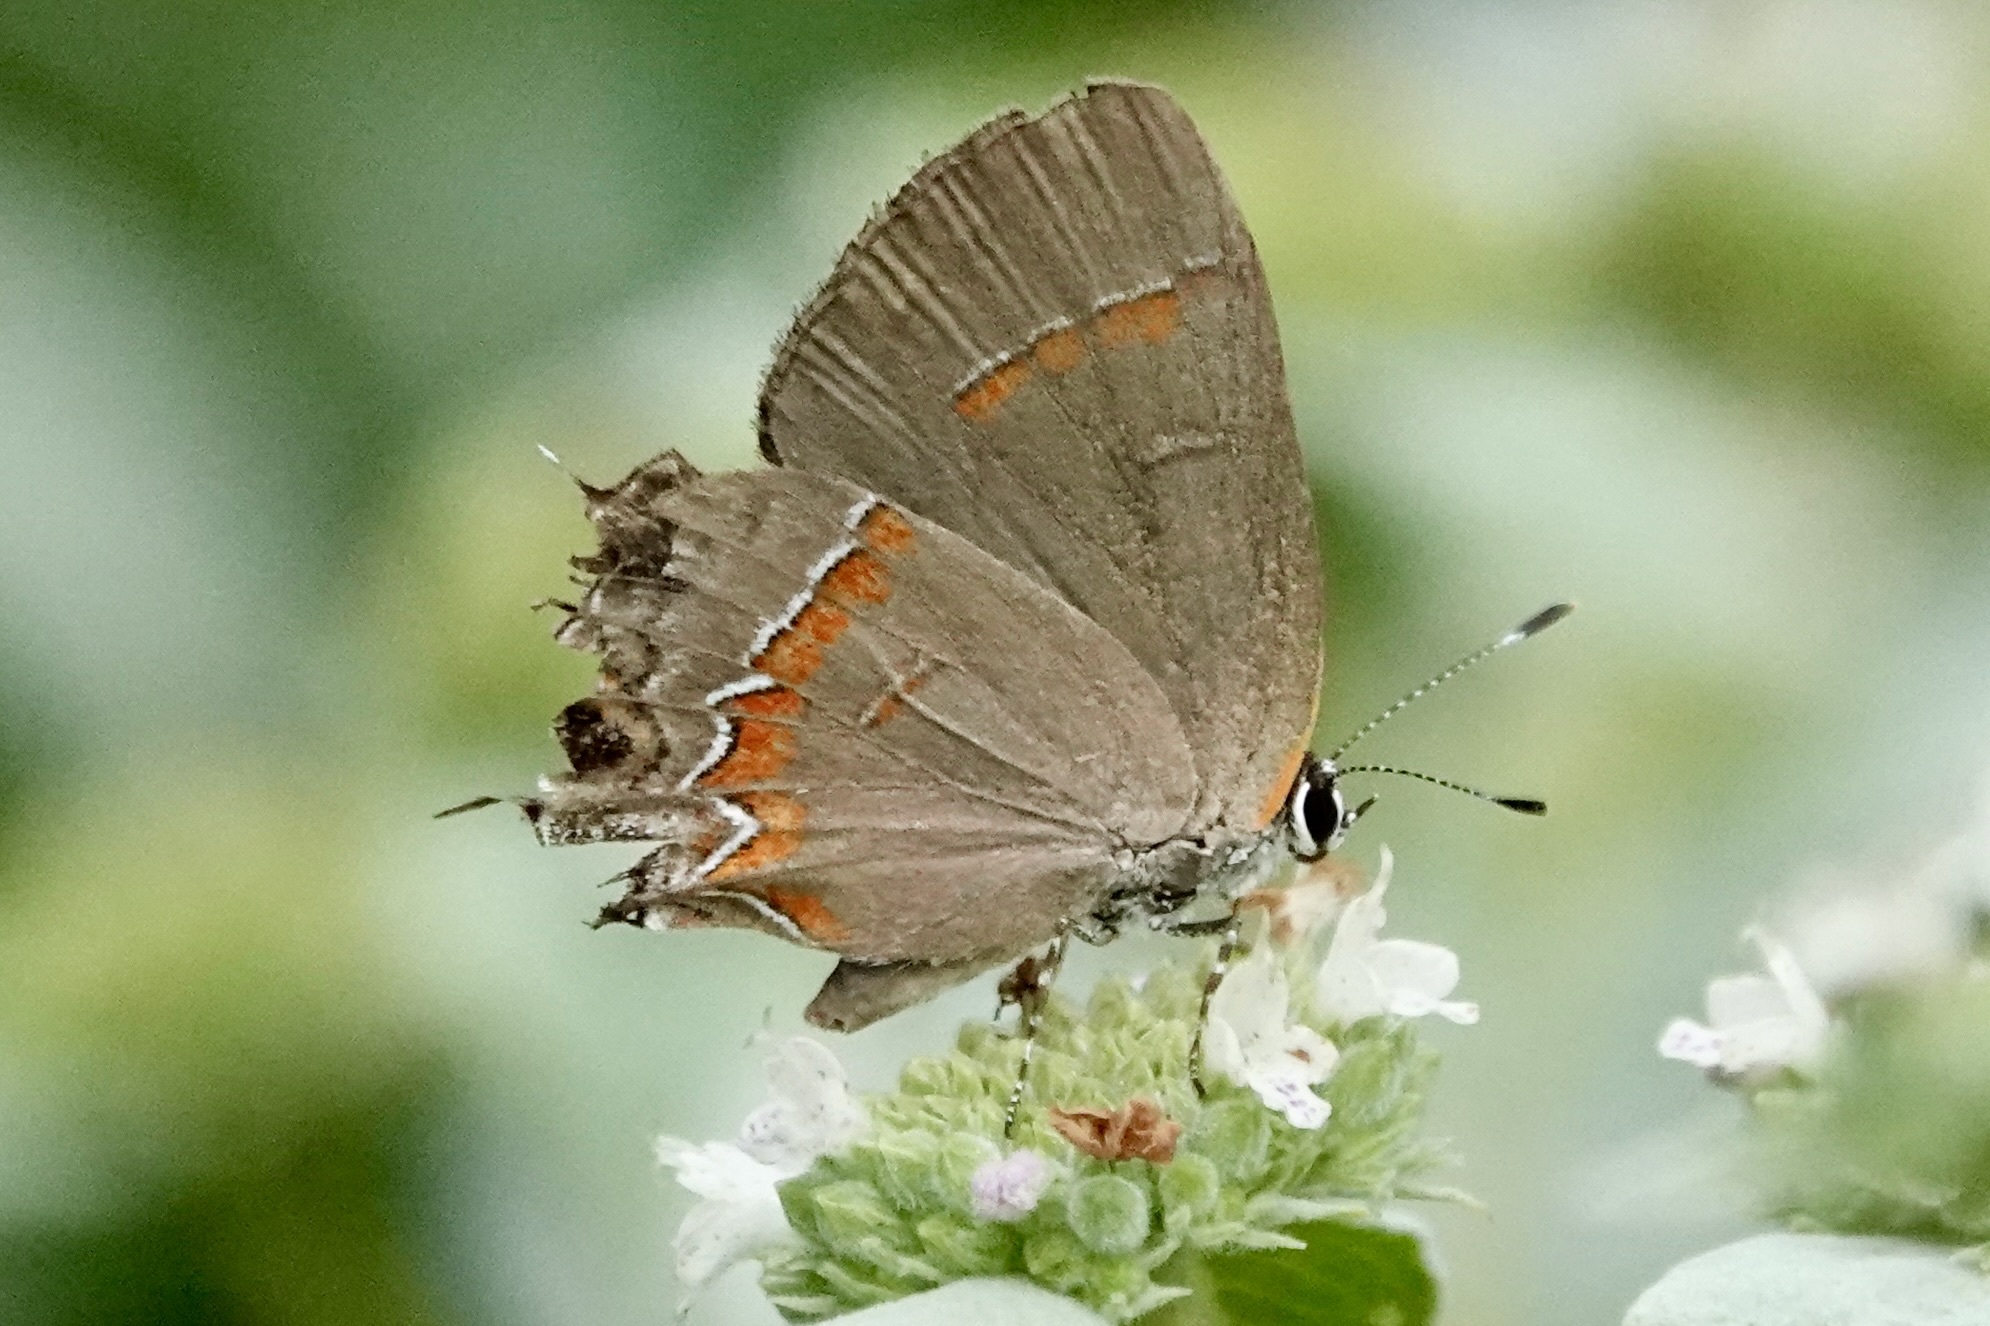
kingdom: Animalia
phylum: Arthropoda
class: Insecta
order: Lepidoptera
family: Lycaenidae
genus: Calycopis
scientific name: Calycopis cecrops
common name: Red-banded hairstreak
